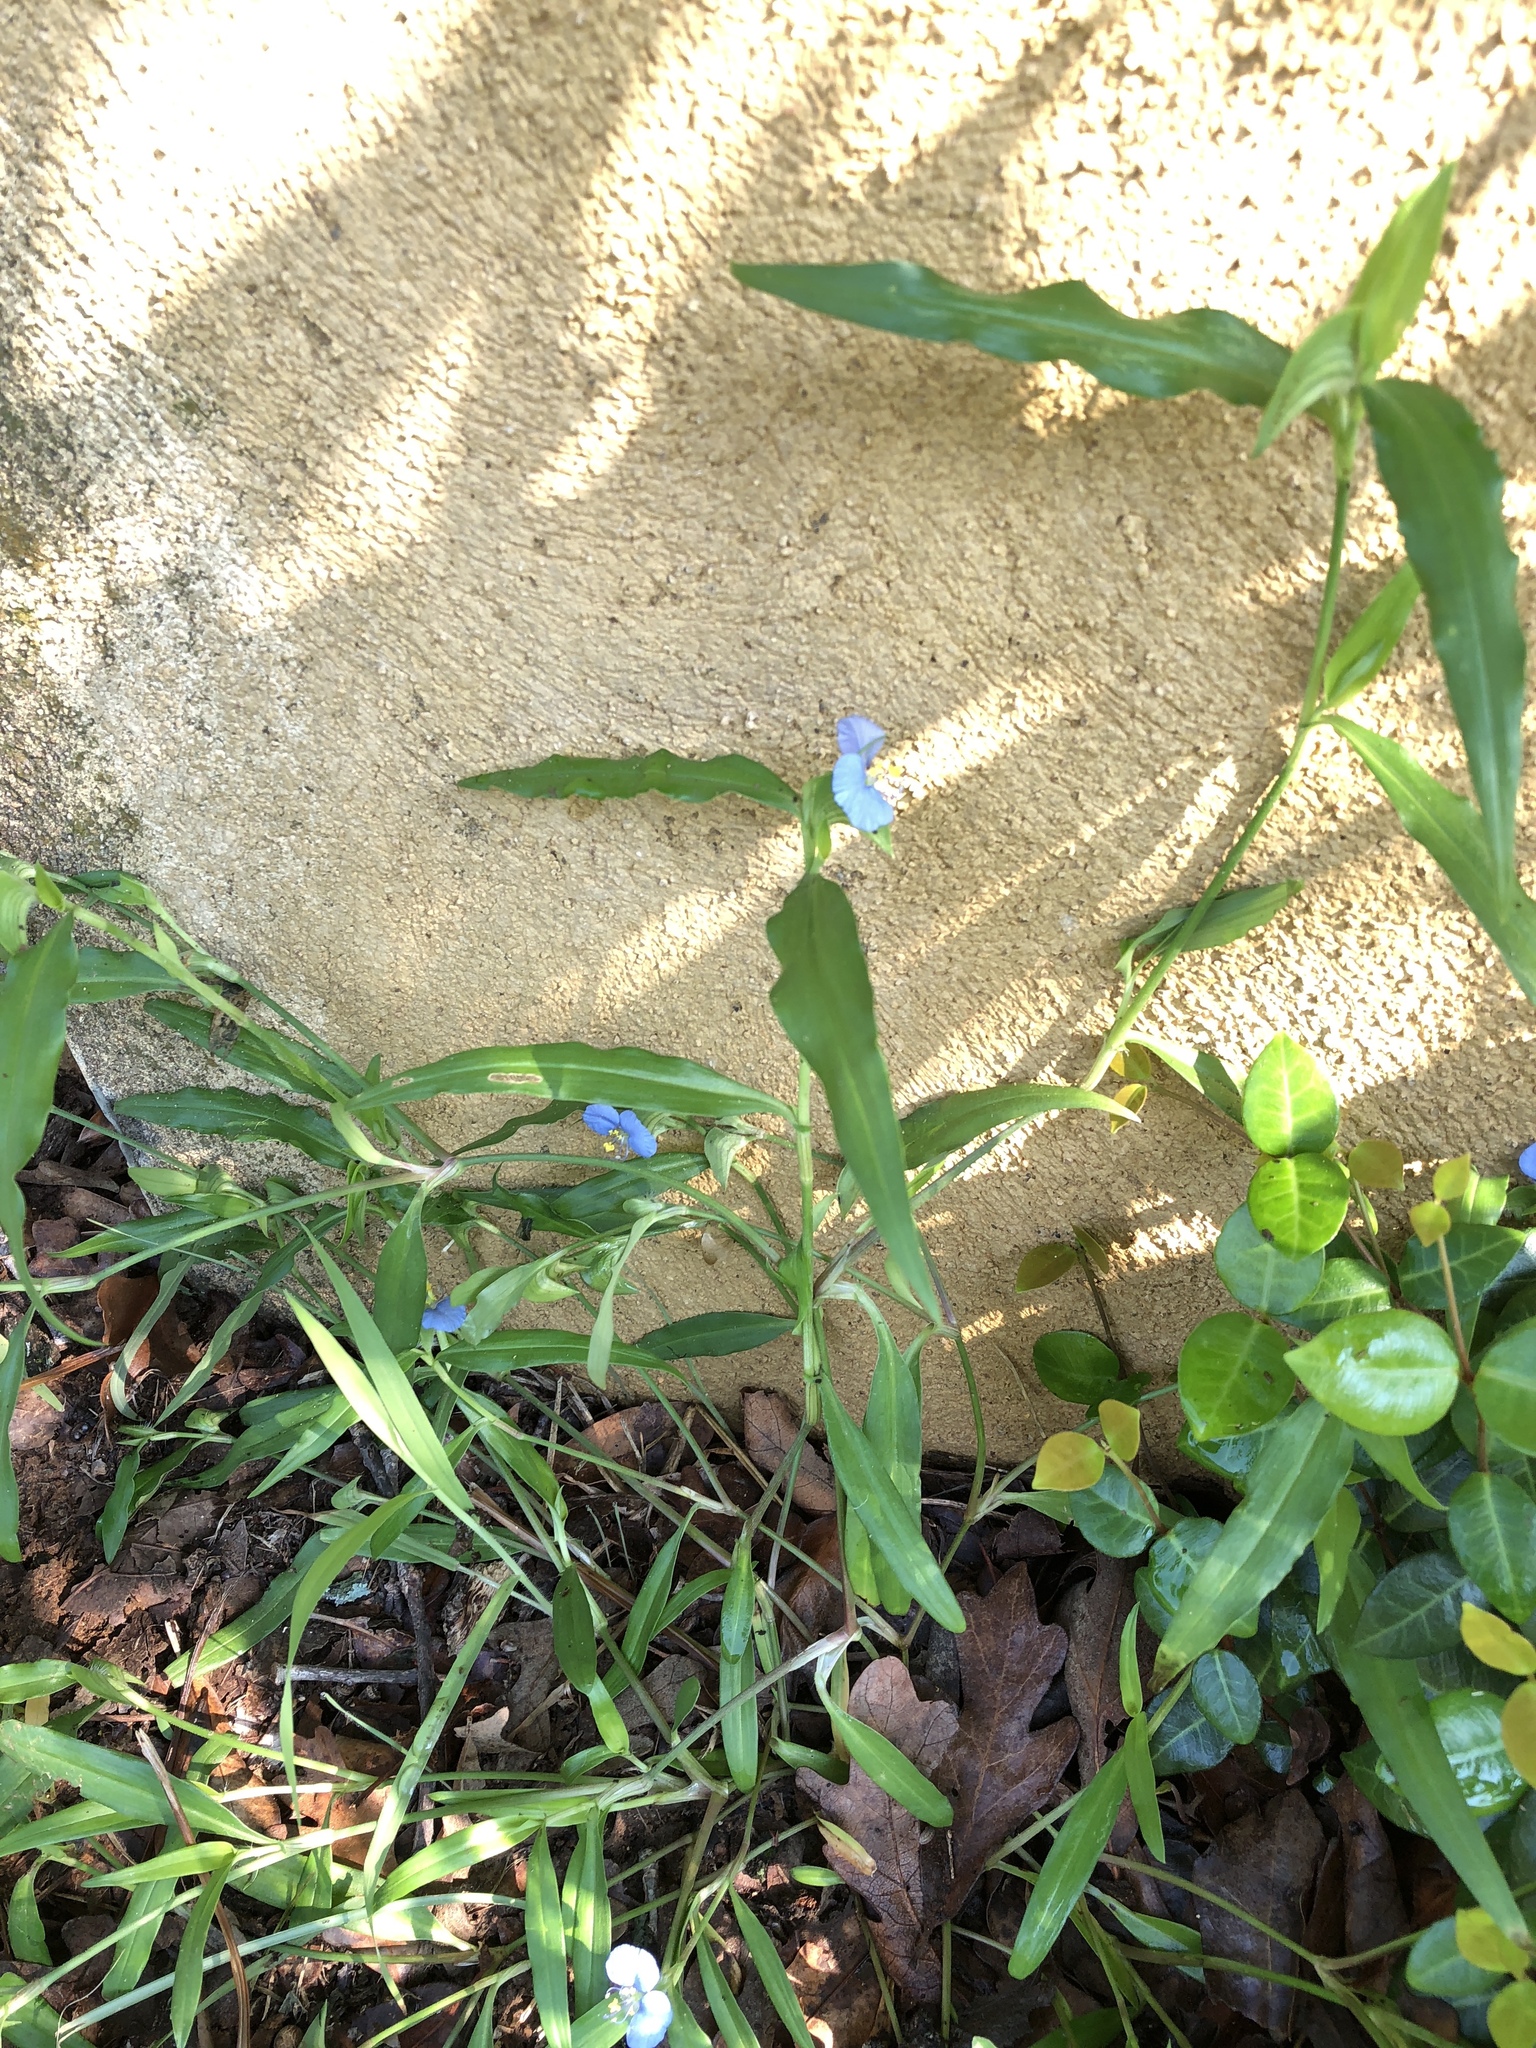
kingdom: Plantae
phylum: Tracheophyta
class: Liliopsida
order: Commelinales
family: Commelinaceae
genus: Commelina
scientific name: Commelina erecta
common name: Blousel blommetjie
